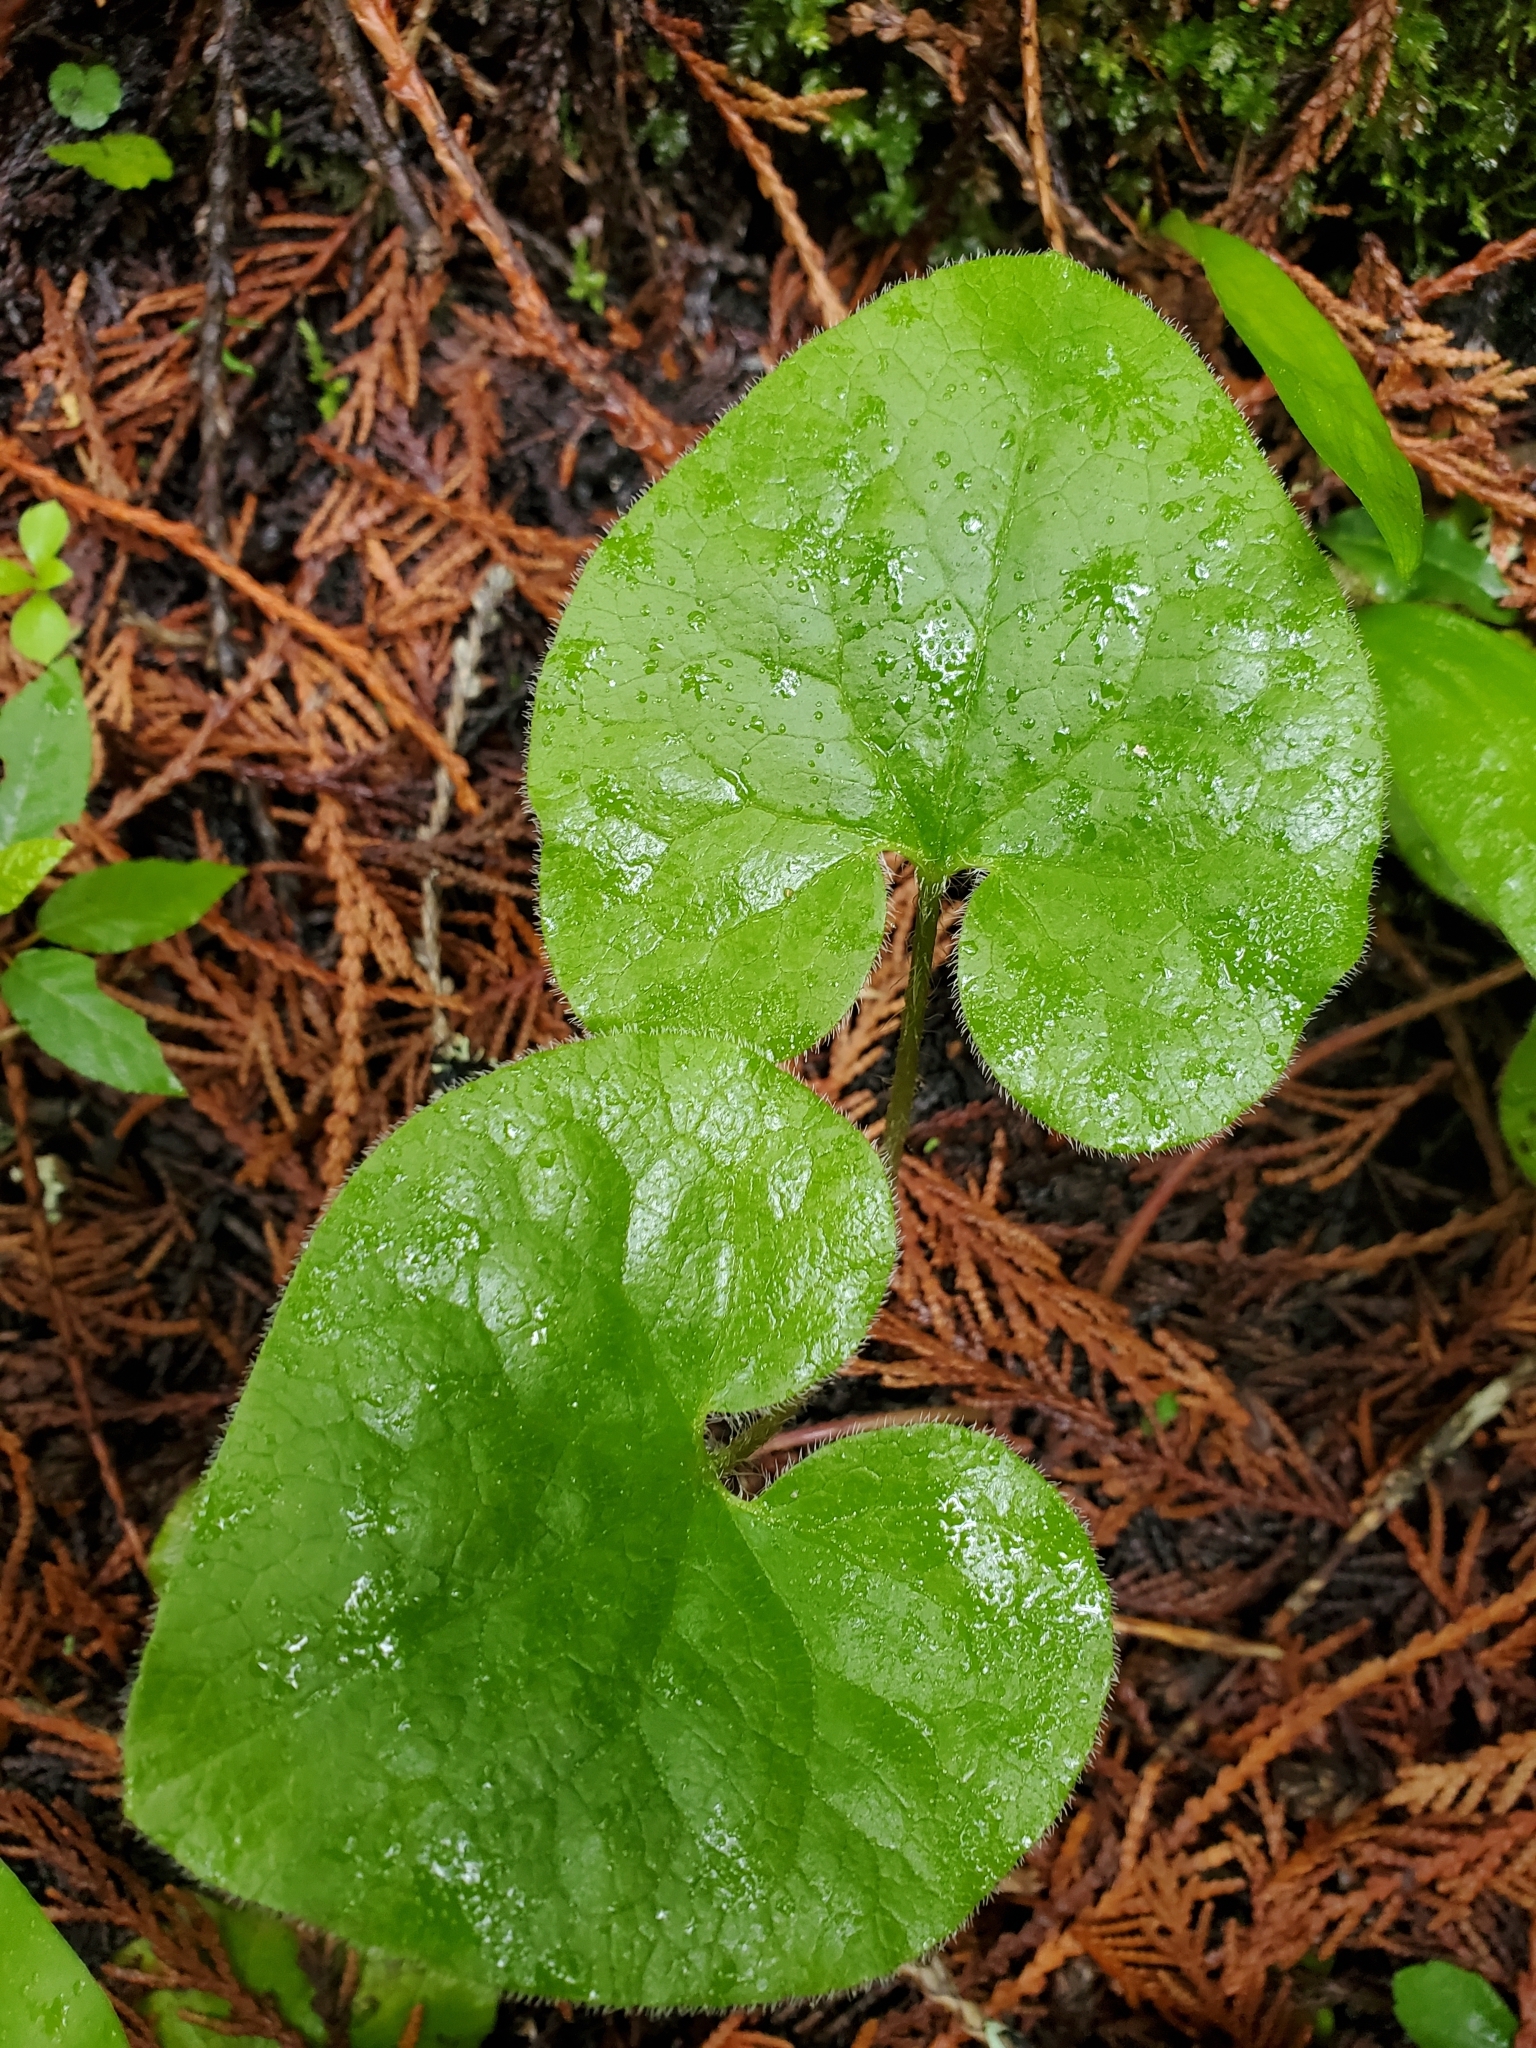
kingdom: Plantae
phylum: Tracheophyta
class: Magnoliopsida
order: Piperales
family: Aristolochiaceae
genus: Asarum
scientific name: Asarum caudatum
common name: Wild ginger
